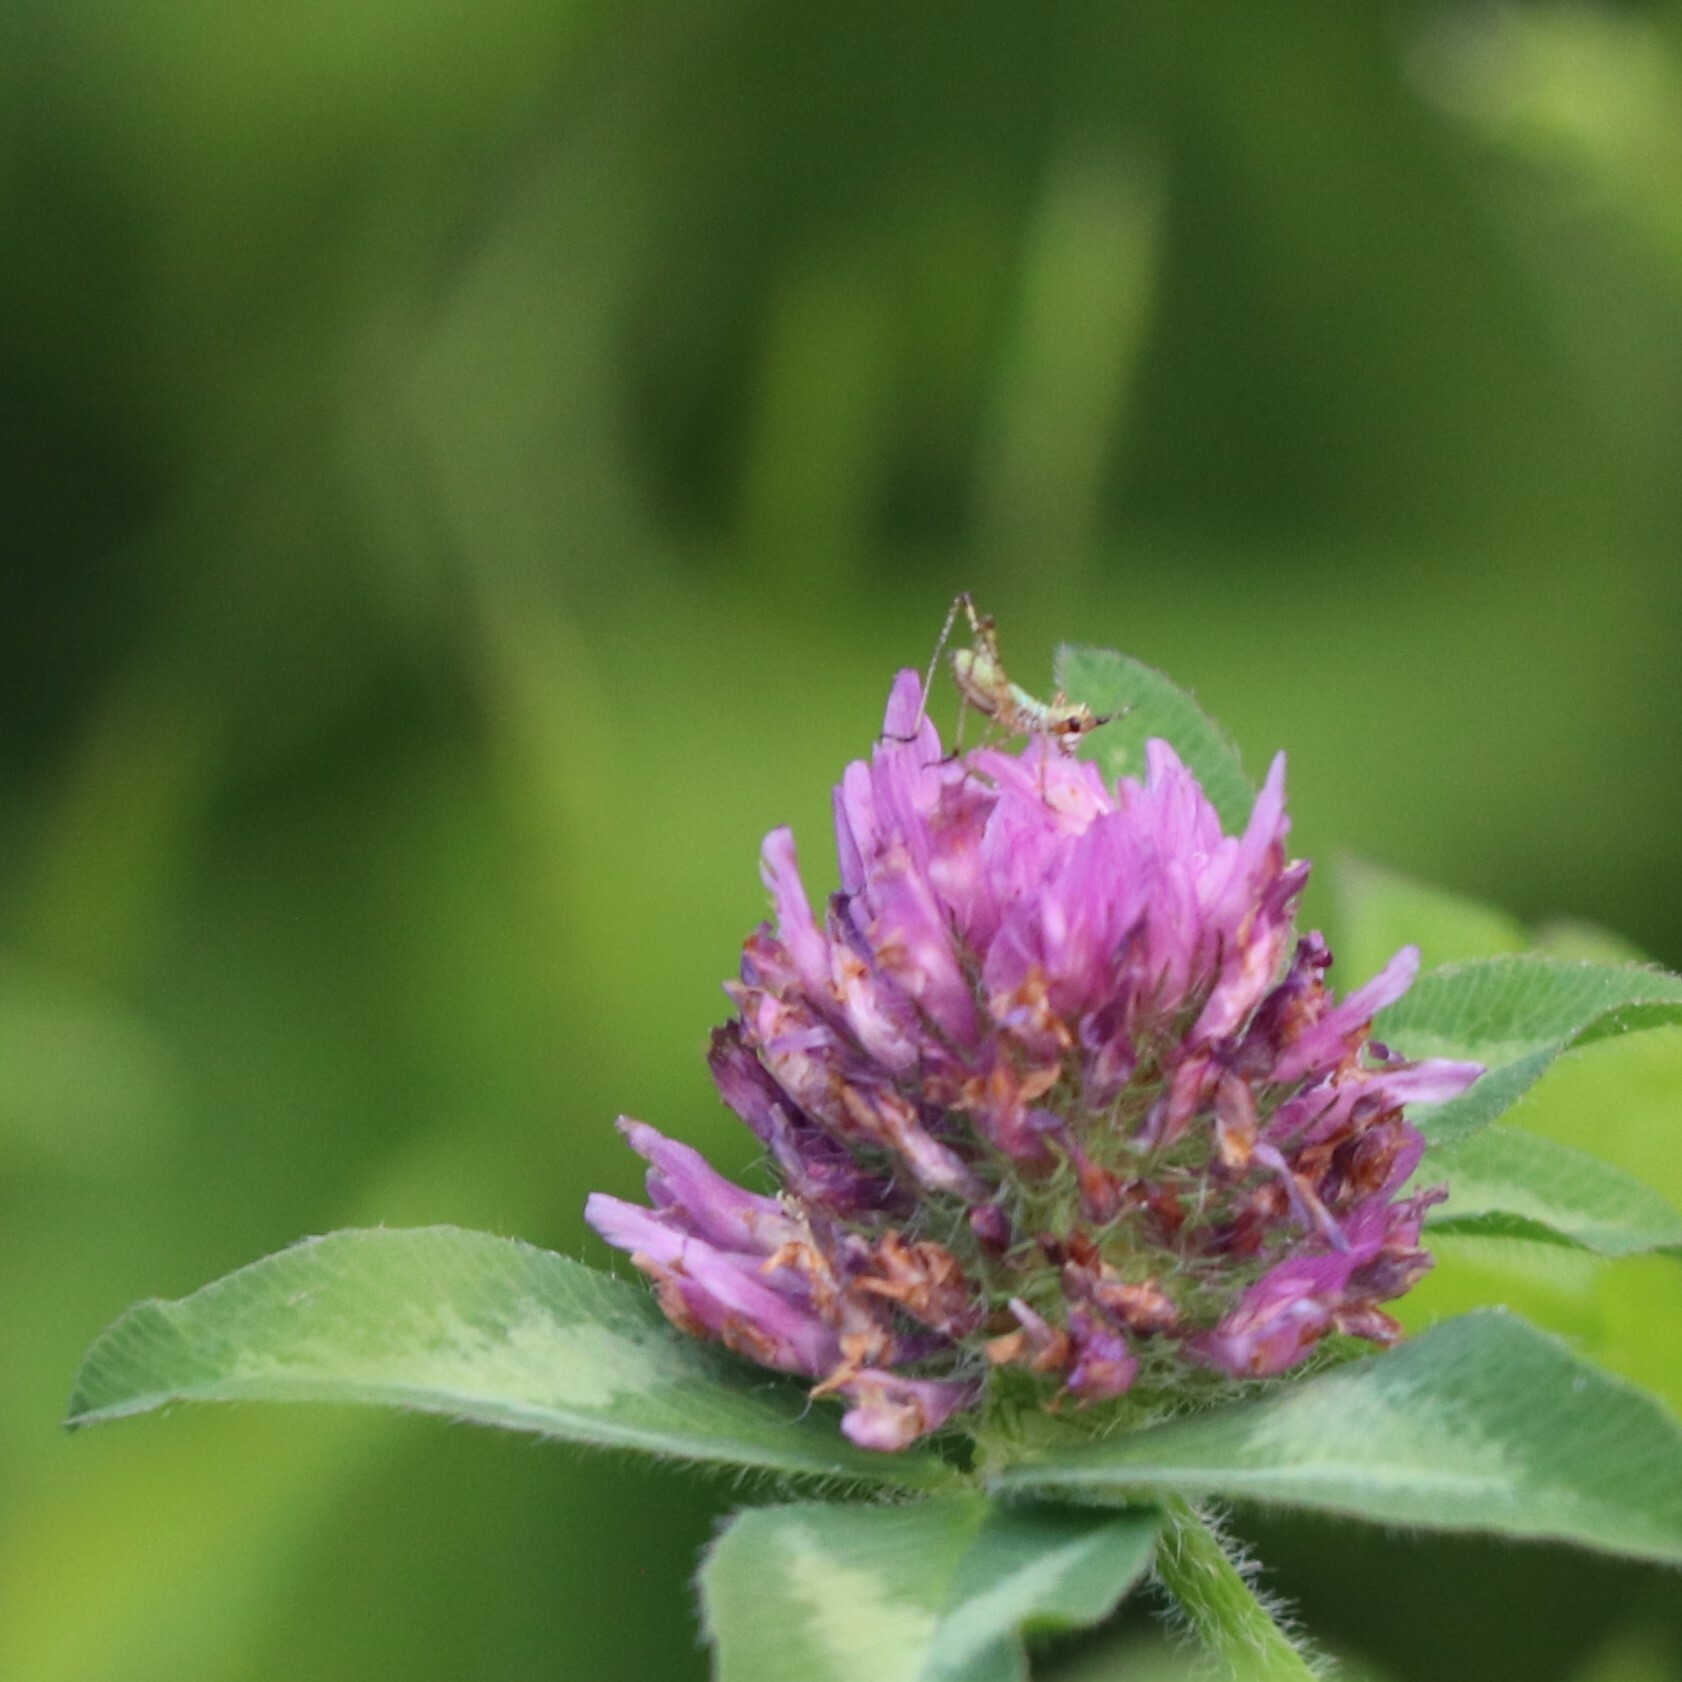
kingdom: Plantae
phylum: Tracheophyta
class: Magnoliopsida
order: Fabales
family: Fabaceae
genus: Trifolium
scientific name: Trifolium pratense
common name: Red clover
